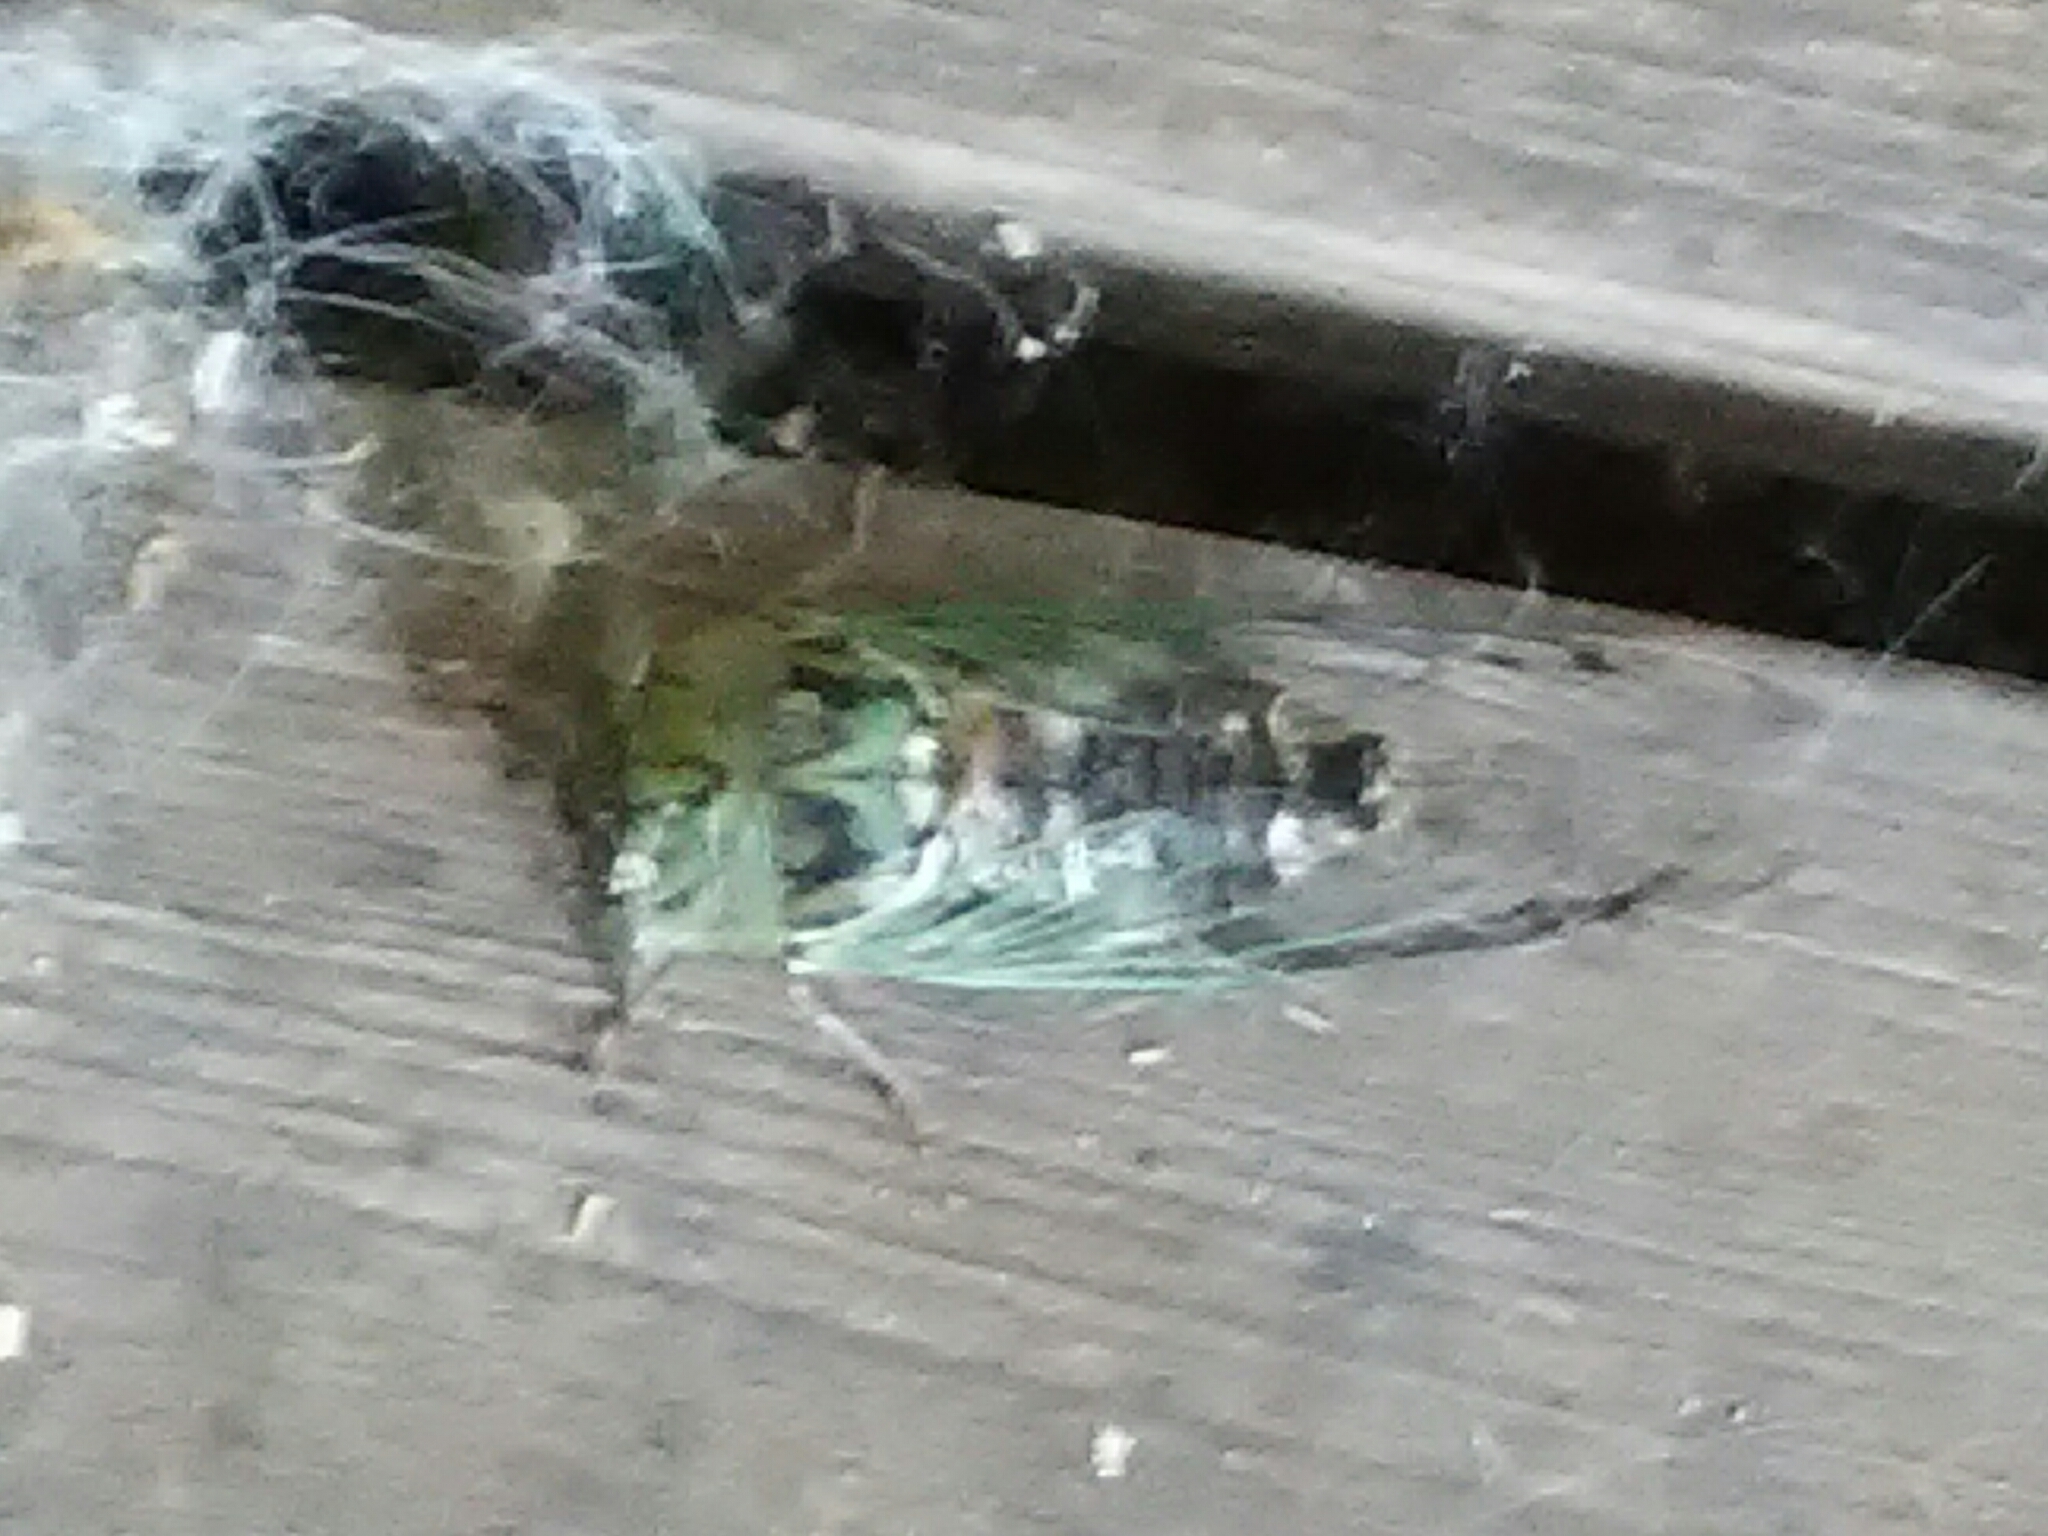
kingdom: Animalia
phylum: Arthropoda
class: Insecta
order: Hemiptera
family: Cicadidae
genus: Megatibicen
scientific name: Megatibicen resh
